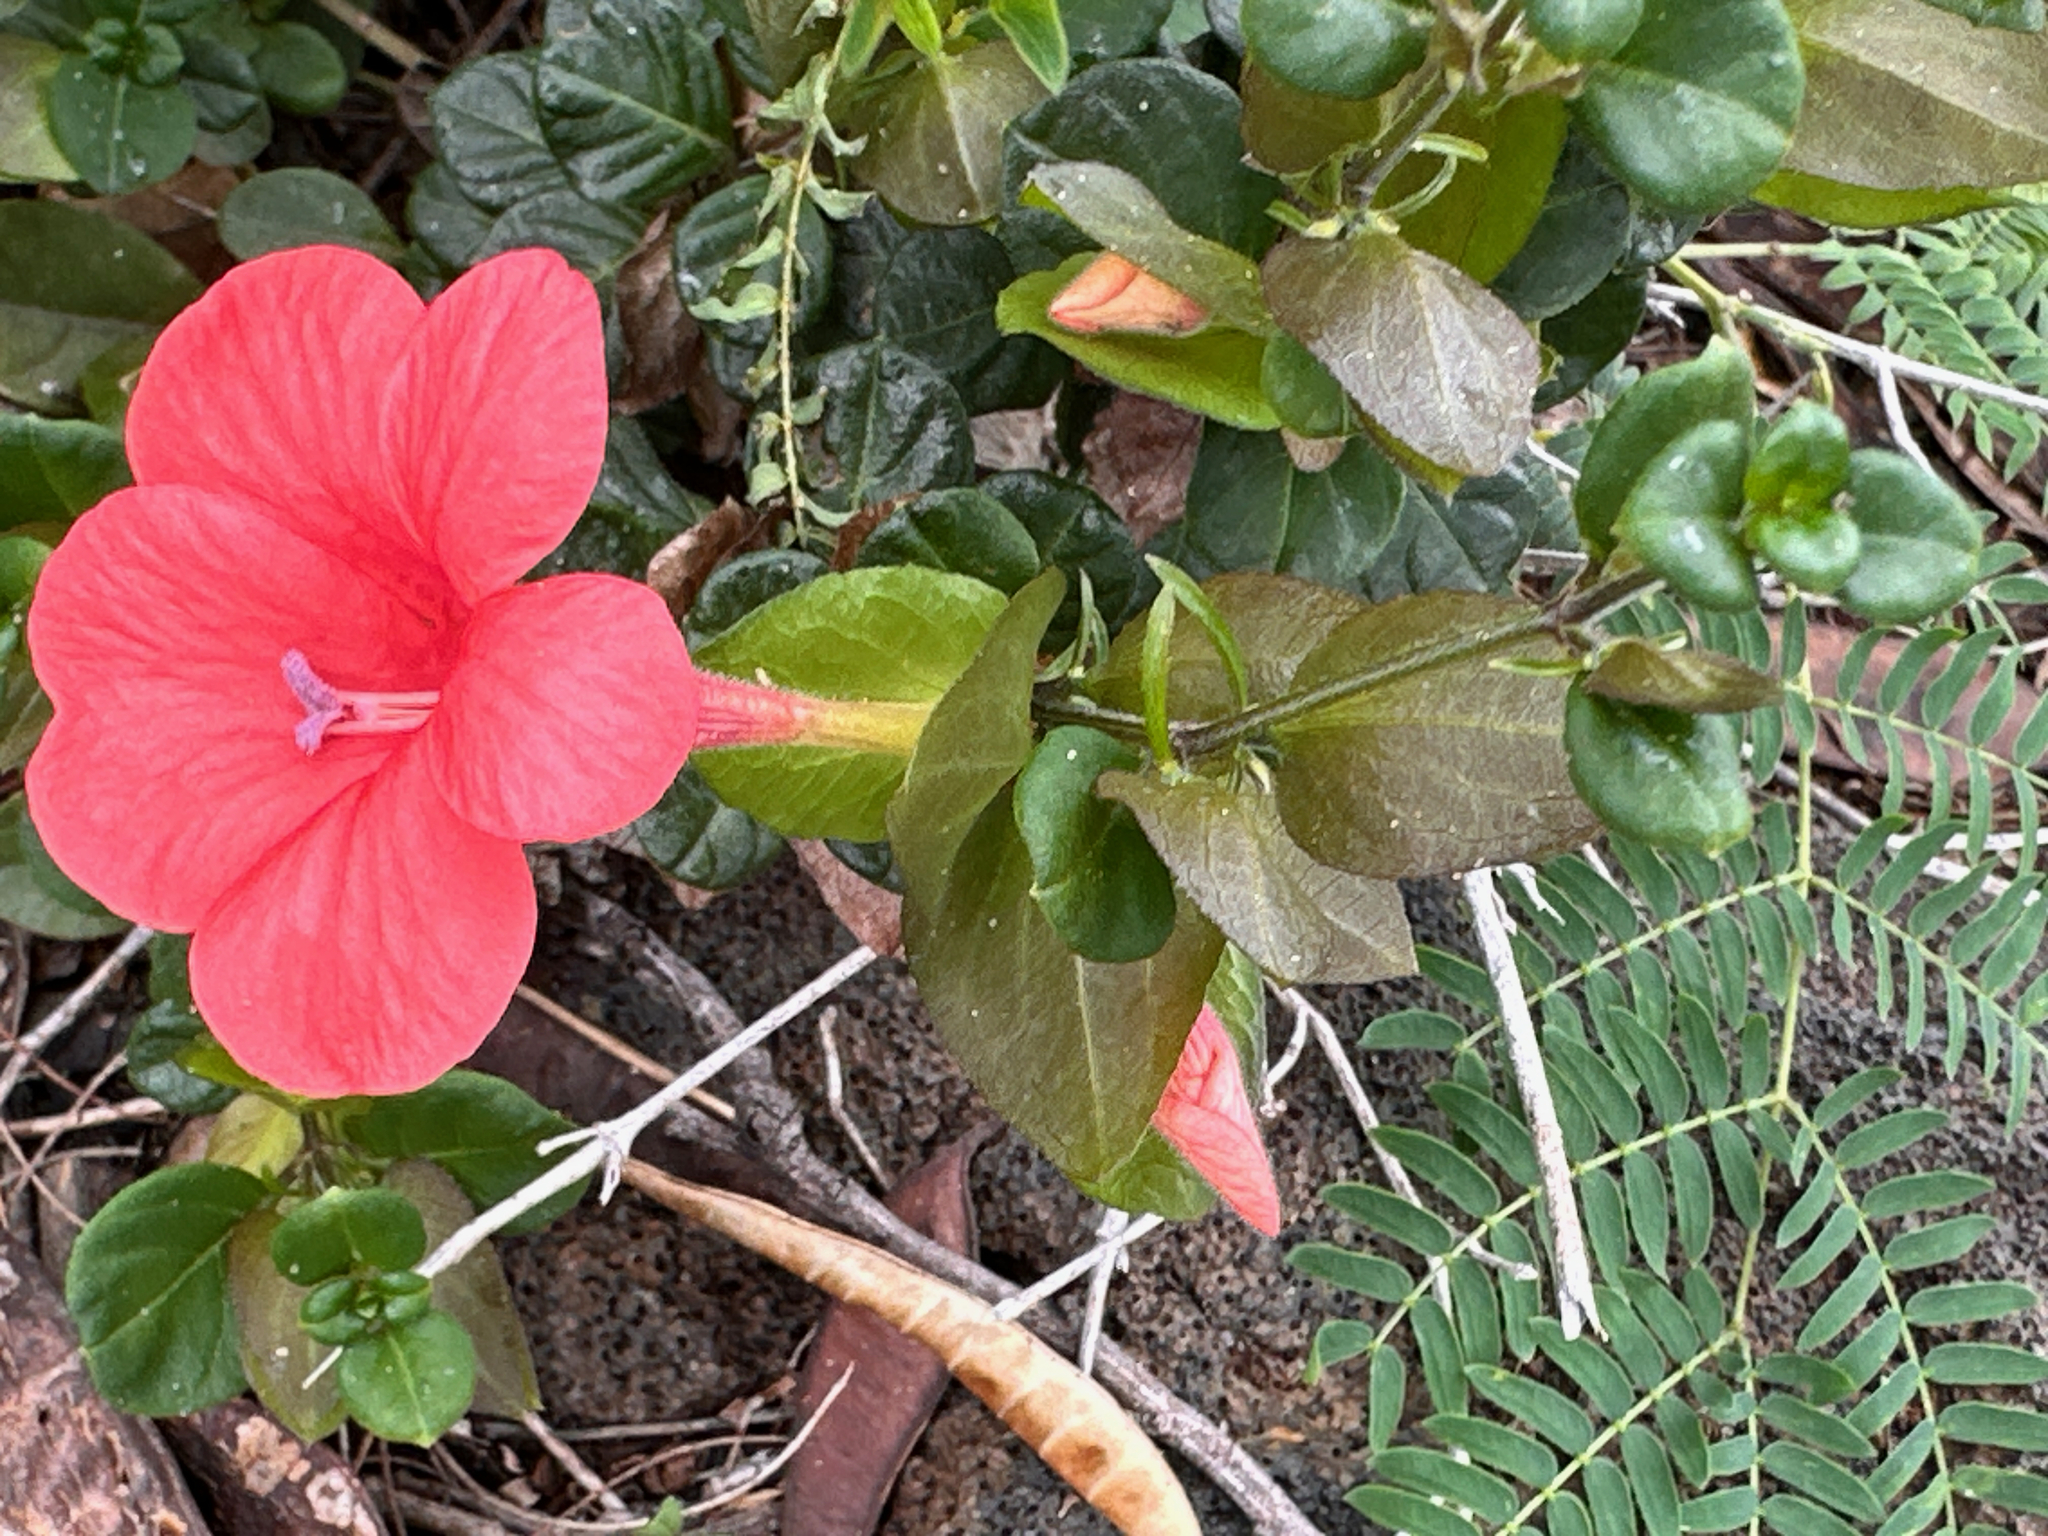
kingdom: Plantae
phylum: Tracheophyta
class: Magnoliopsida
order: Lamiales
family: Acanthaceae
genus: Barleria
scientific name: Barleria repens
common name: Pink-ruellia
